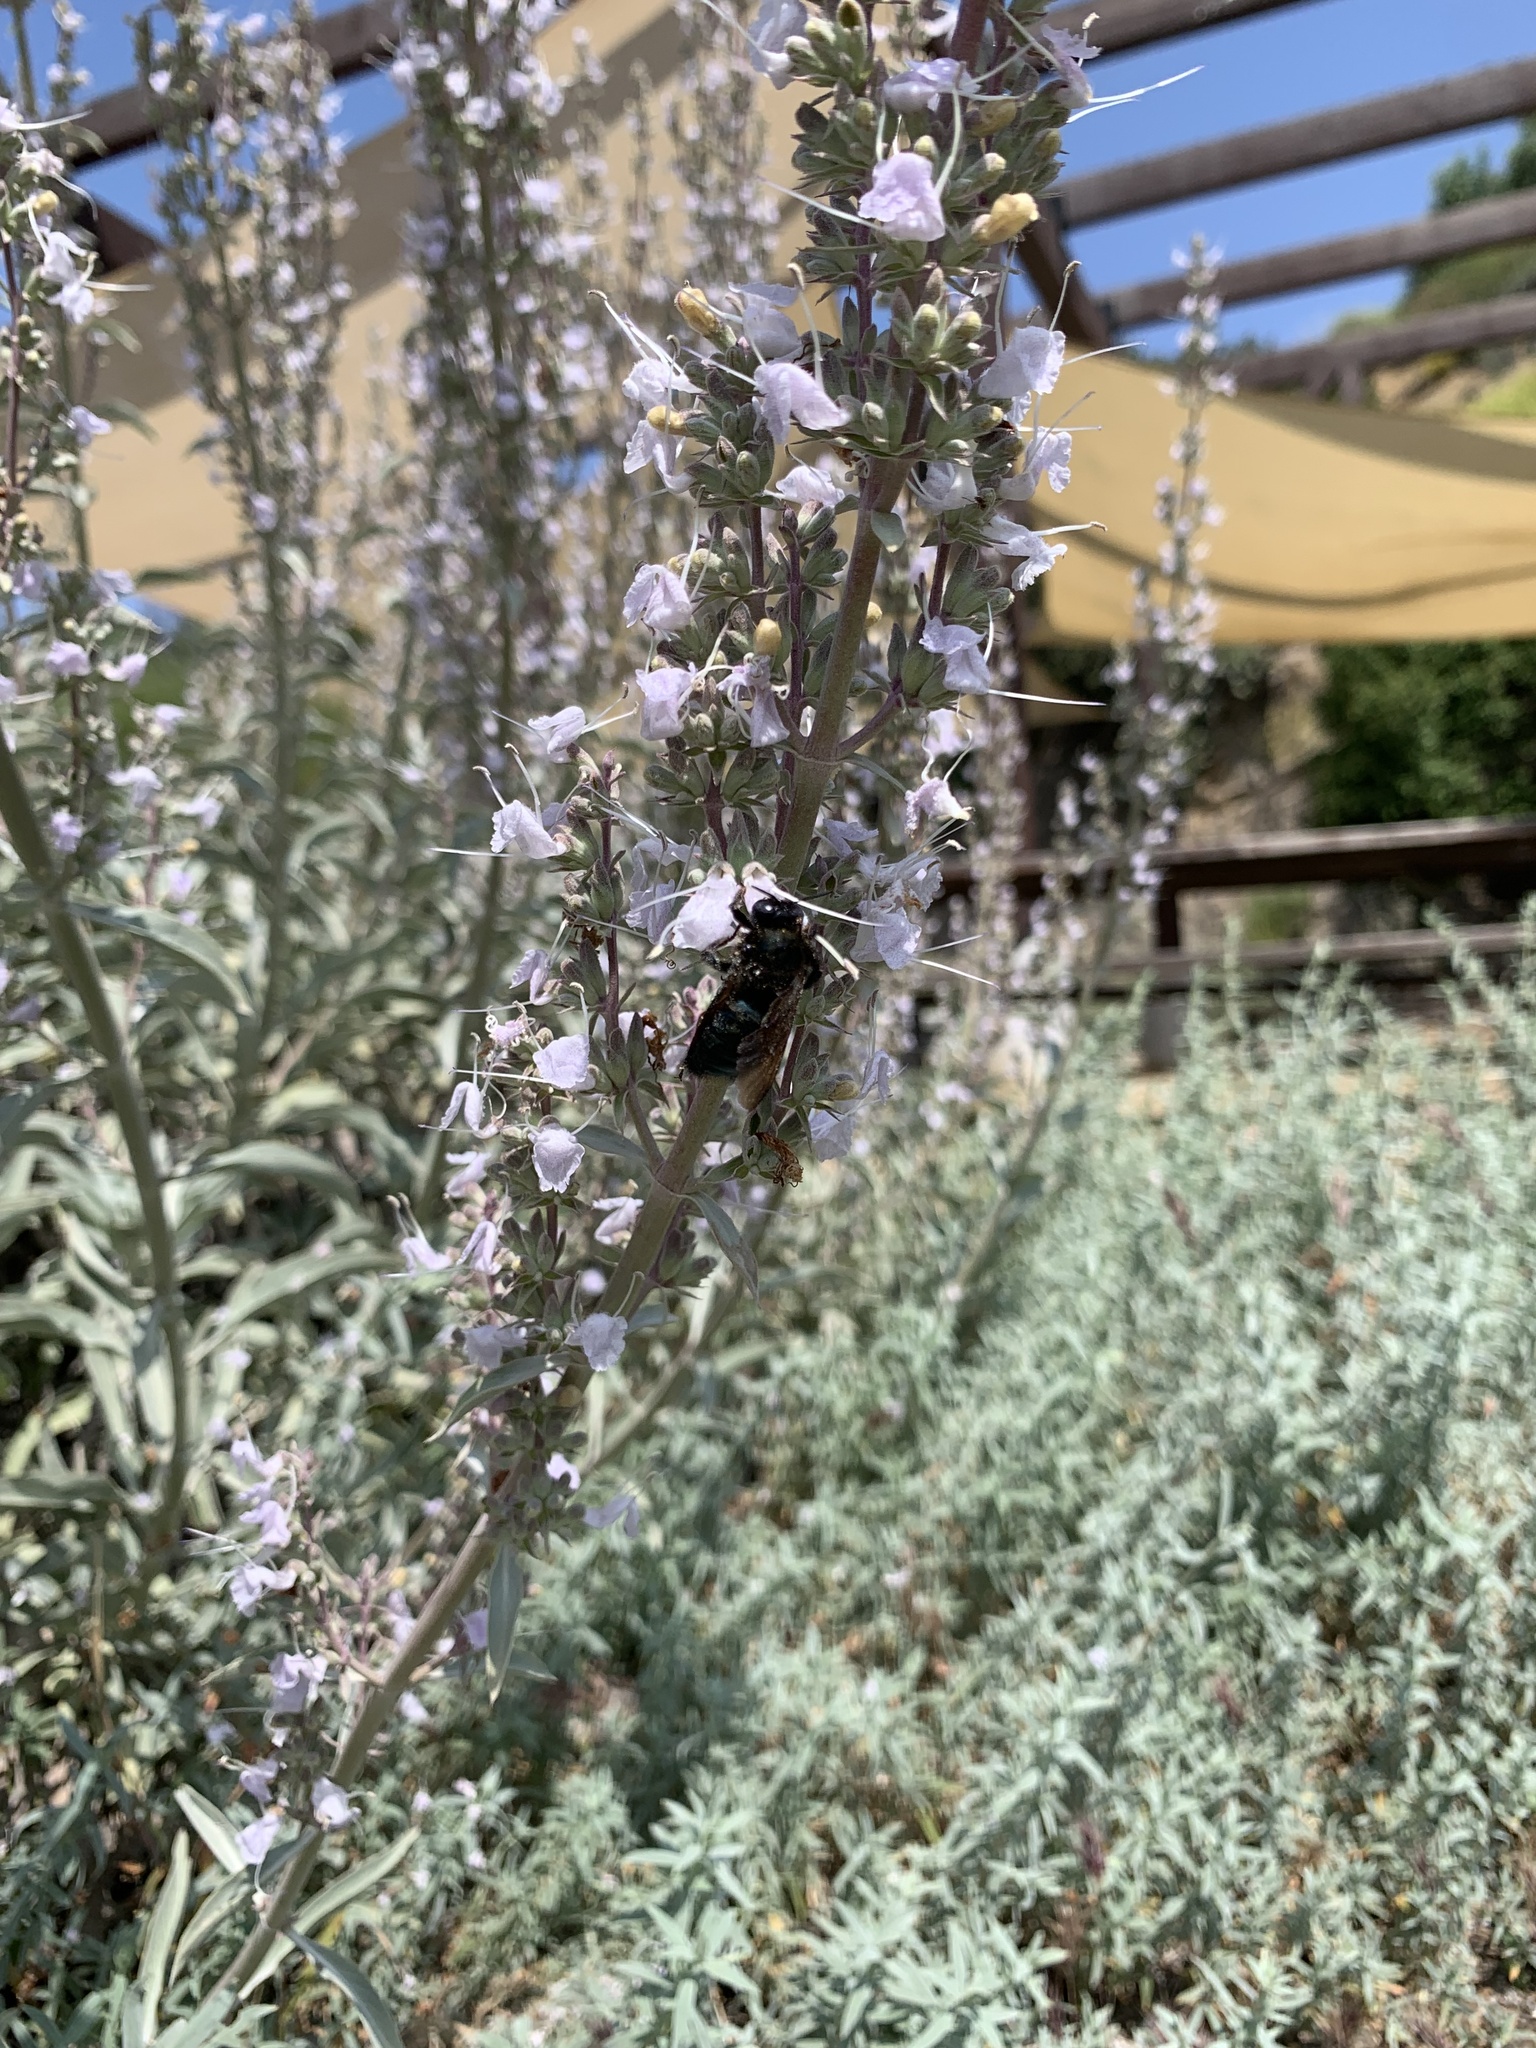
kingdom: Animalia
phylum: Arthropoda
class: Insecta
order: Hymenoptera
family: Apidae
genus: Xylocopa
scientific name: Xylocopa californica
